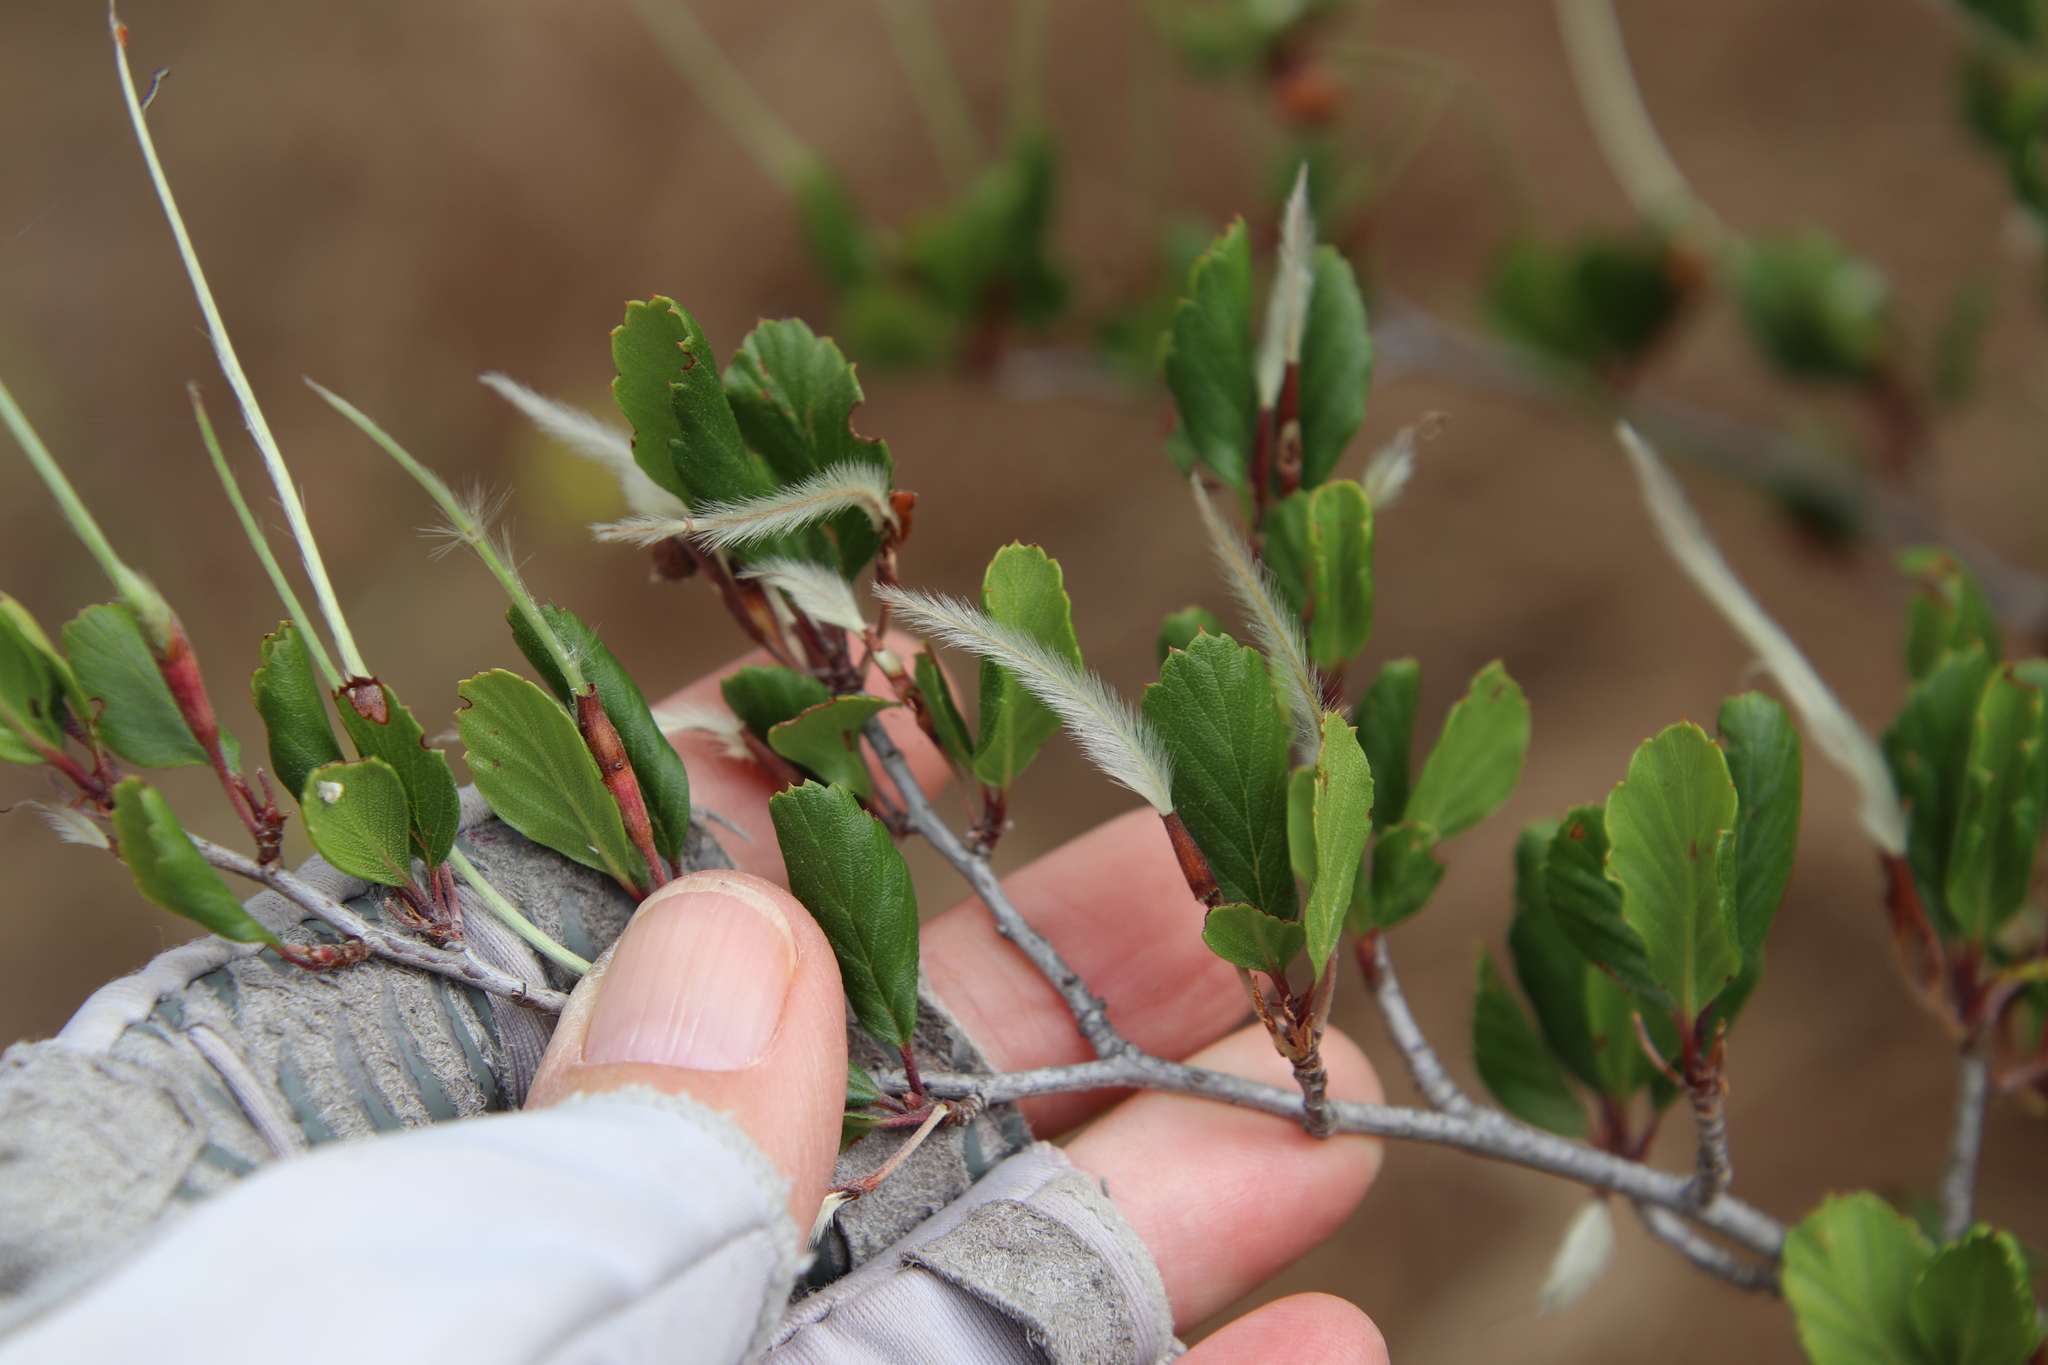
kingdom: Plantae
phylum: Tracheophyta
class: Magnoliopsida
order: Rosales
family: Rosaceae
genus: Cercocarpus
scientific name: Cercocarpus montanus
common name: Alder-leaf cercocarpus
